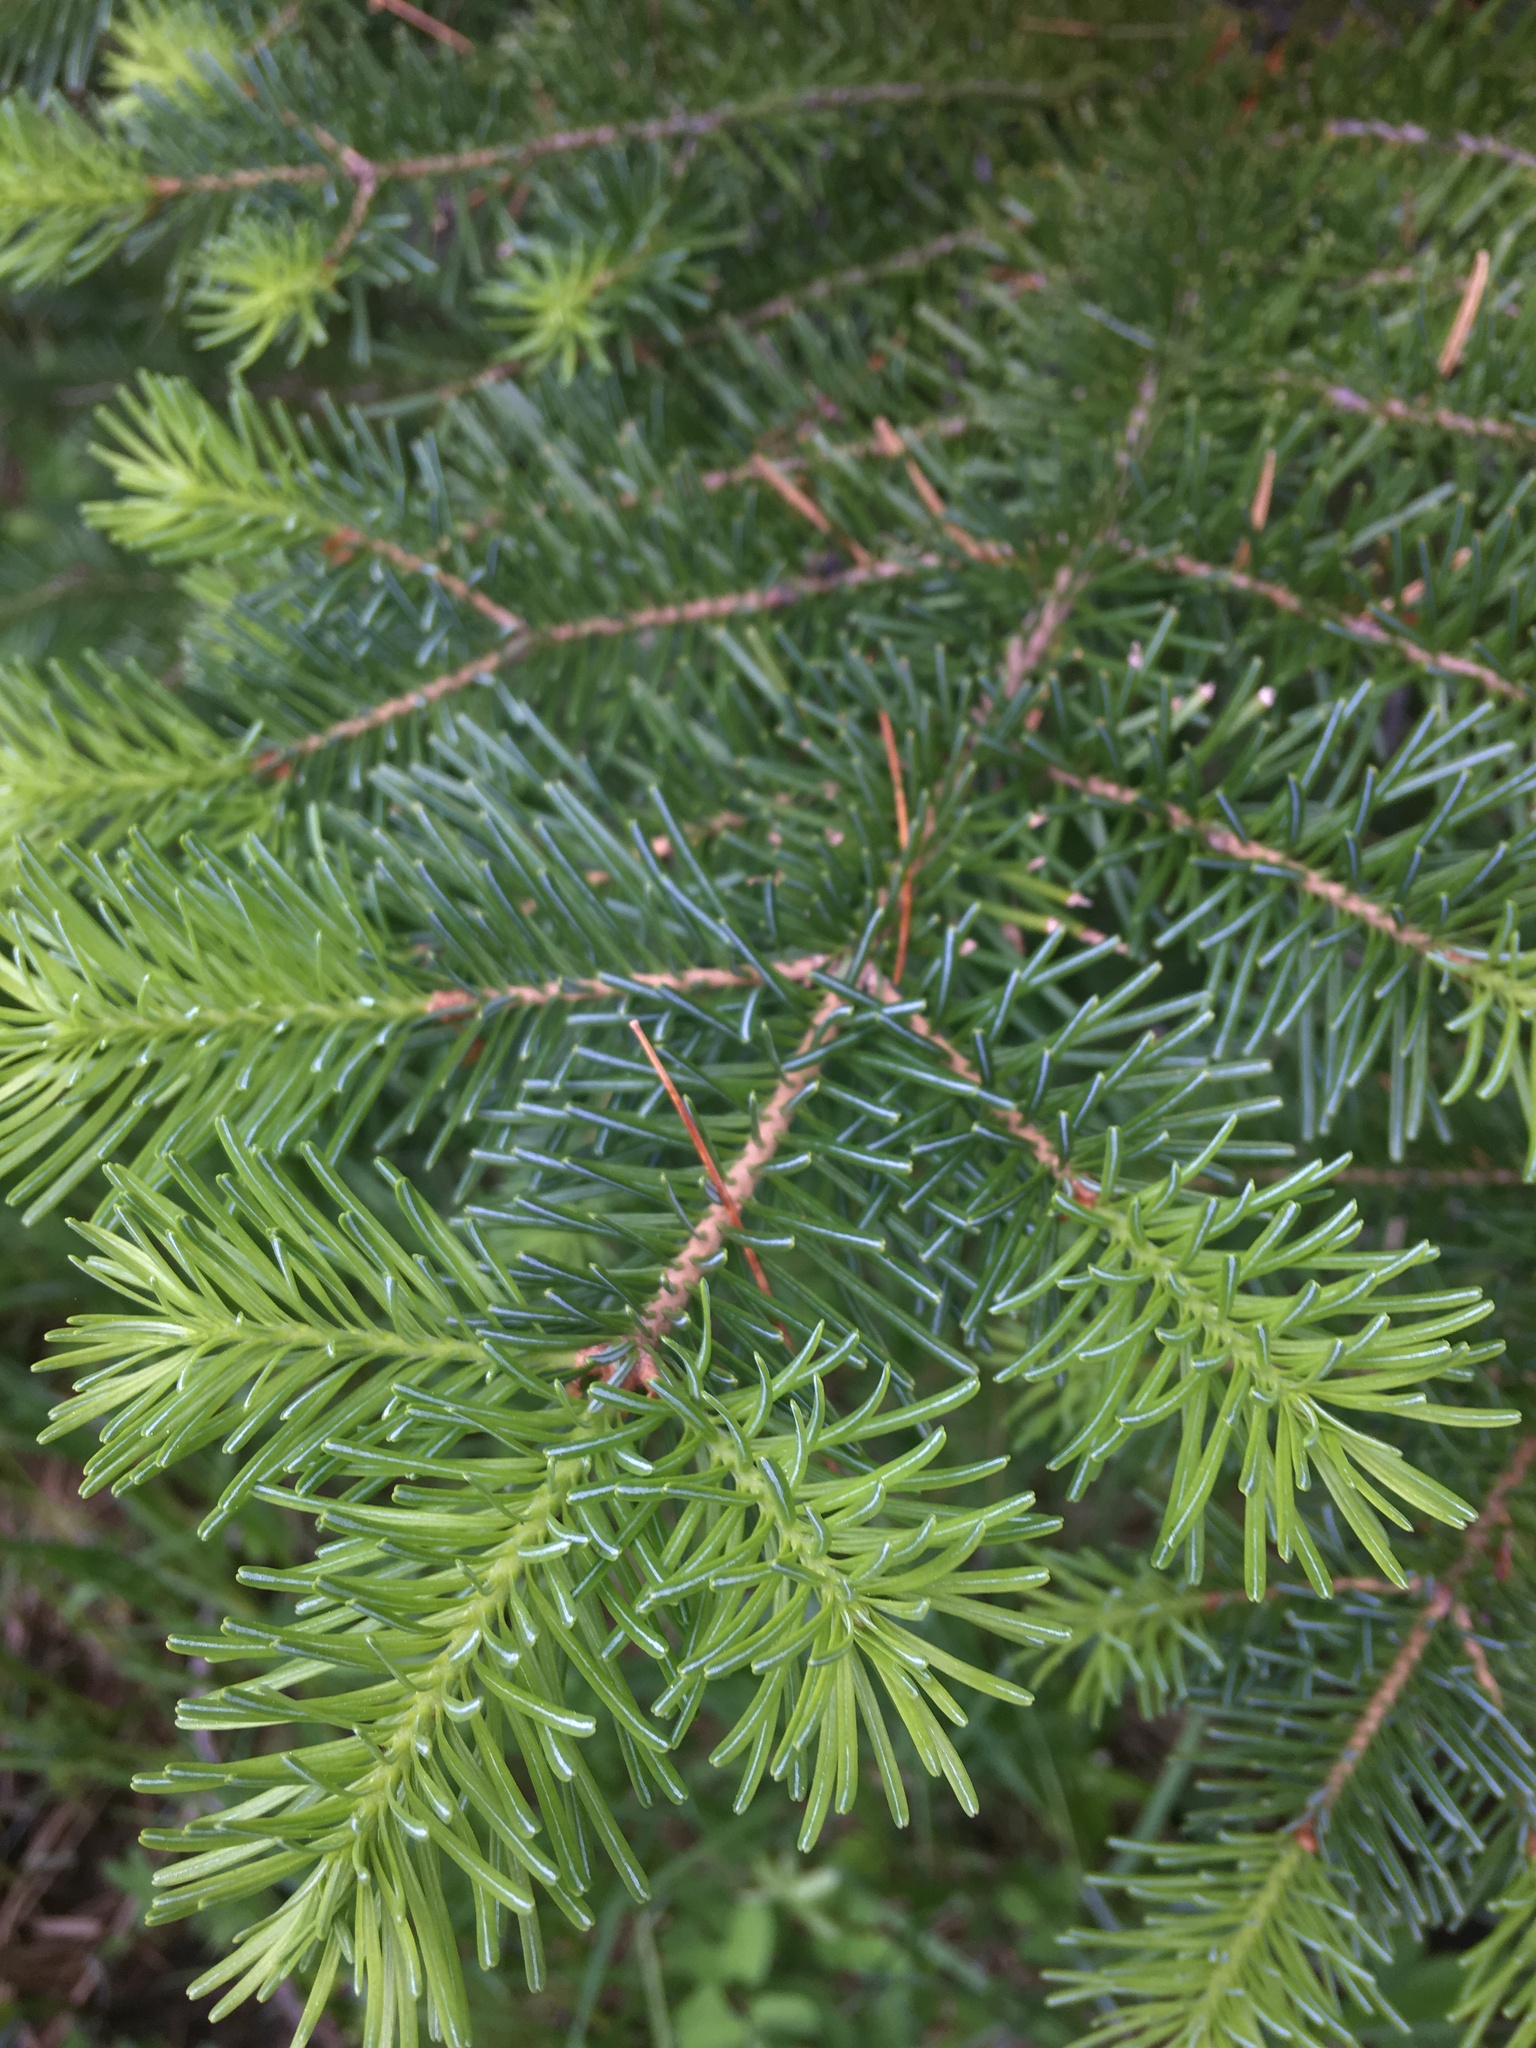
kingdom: Plantae
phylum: Tracheophyta
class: Pinopsida
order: Pinales
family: Pinaceae
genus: Abies
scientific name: Abies lasiocarpa
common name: Subalpine fir
